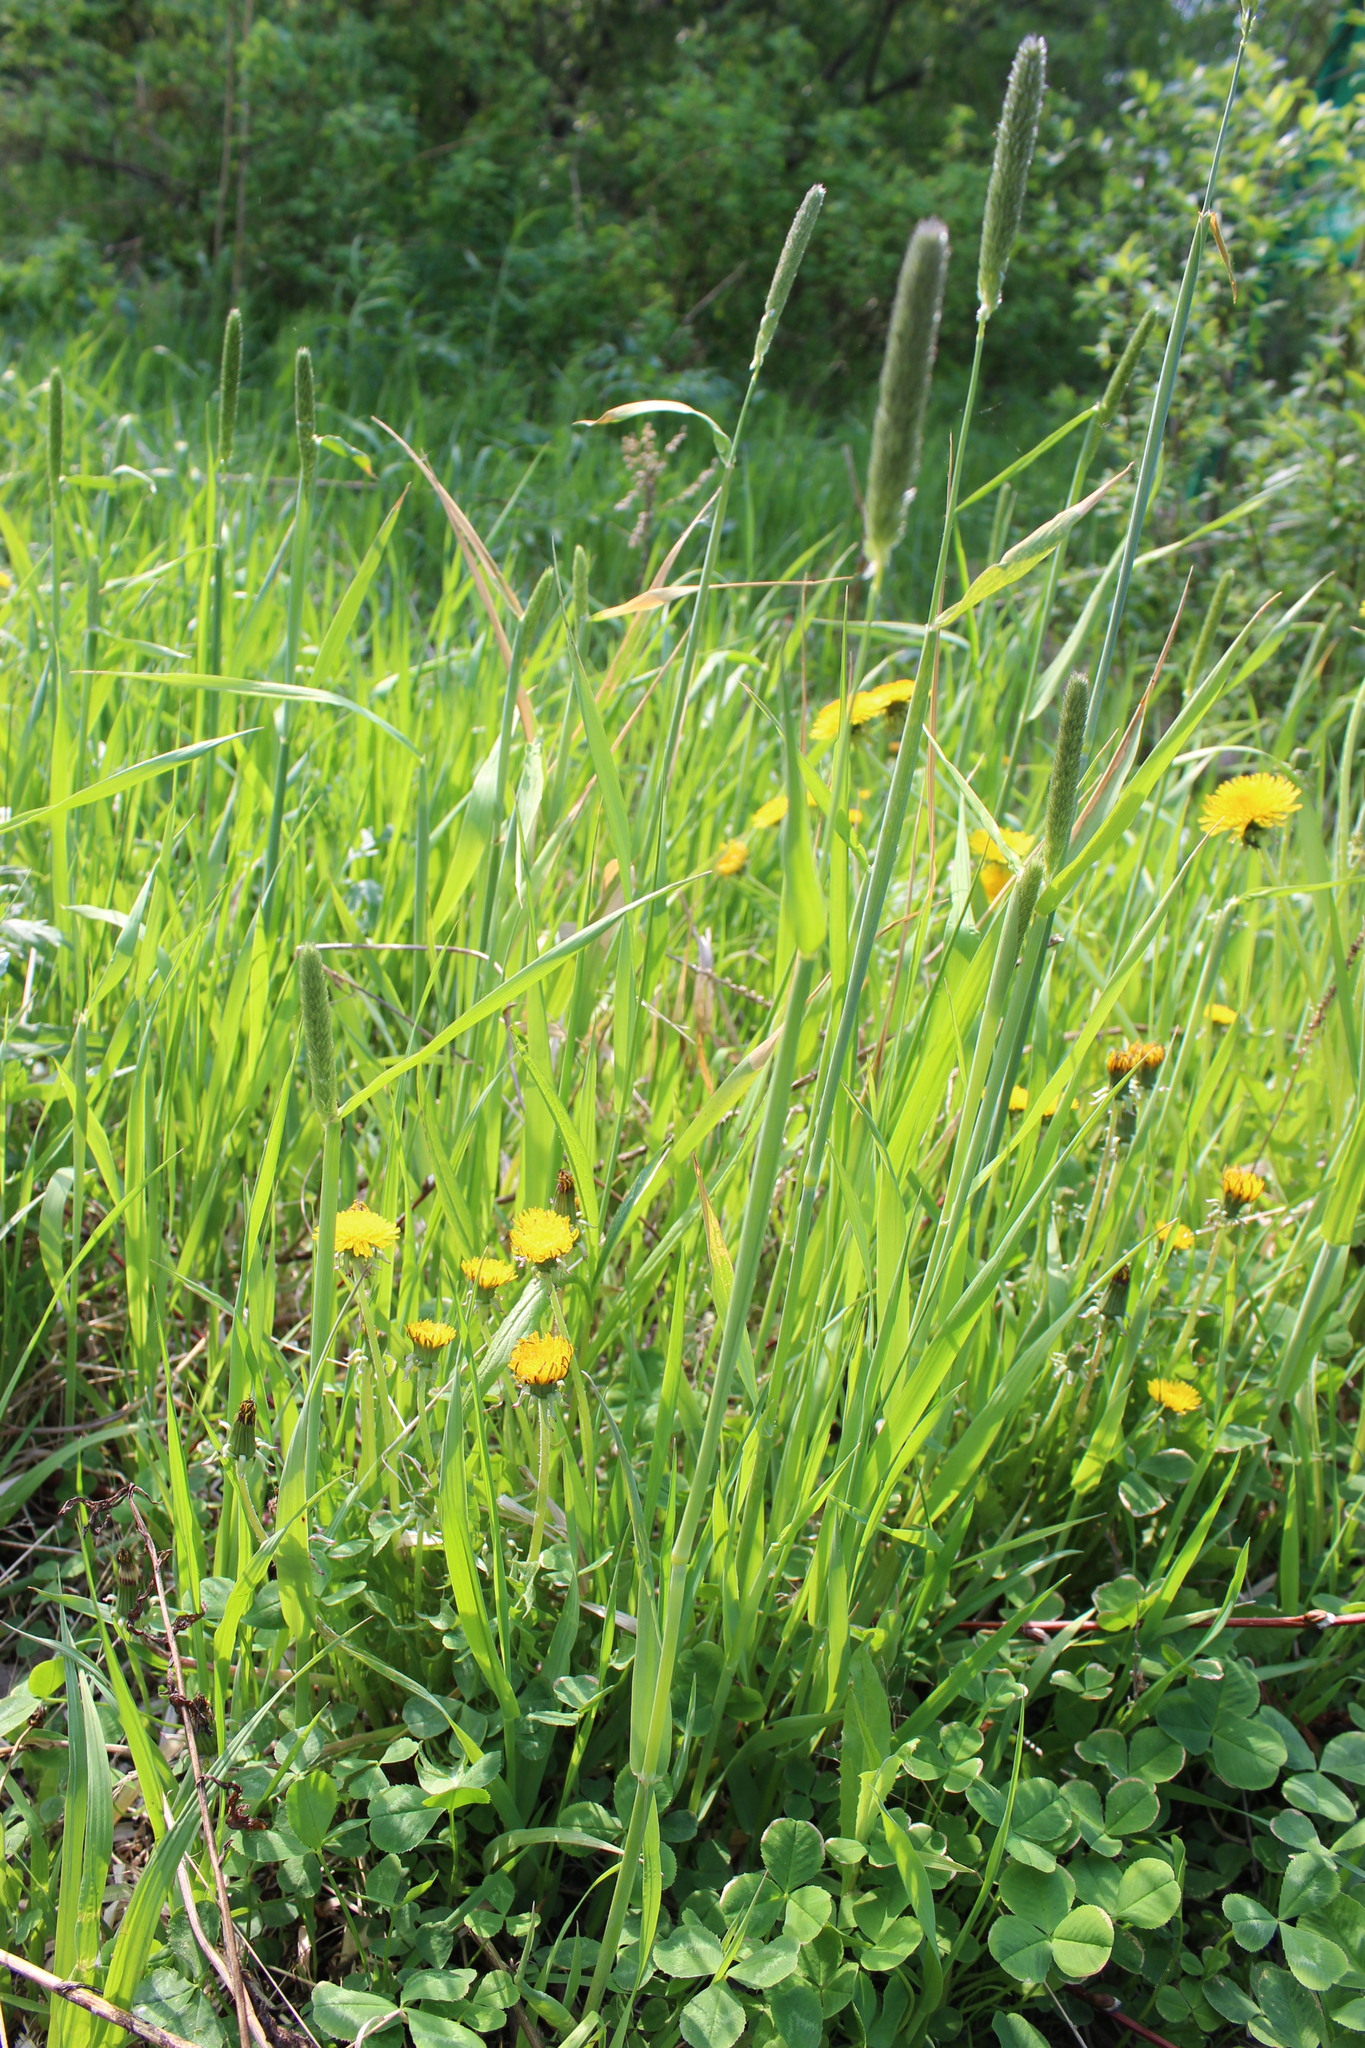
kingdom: Plantae
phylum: Tracheophyta
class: Liliopsida
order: Poales
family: Poaceae
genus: Phleum
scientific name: Phleum pratense
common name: Timothy grass
